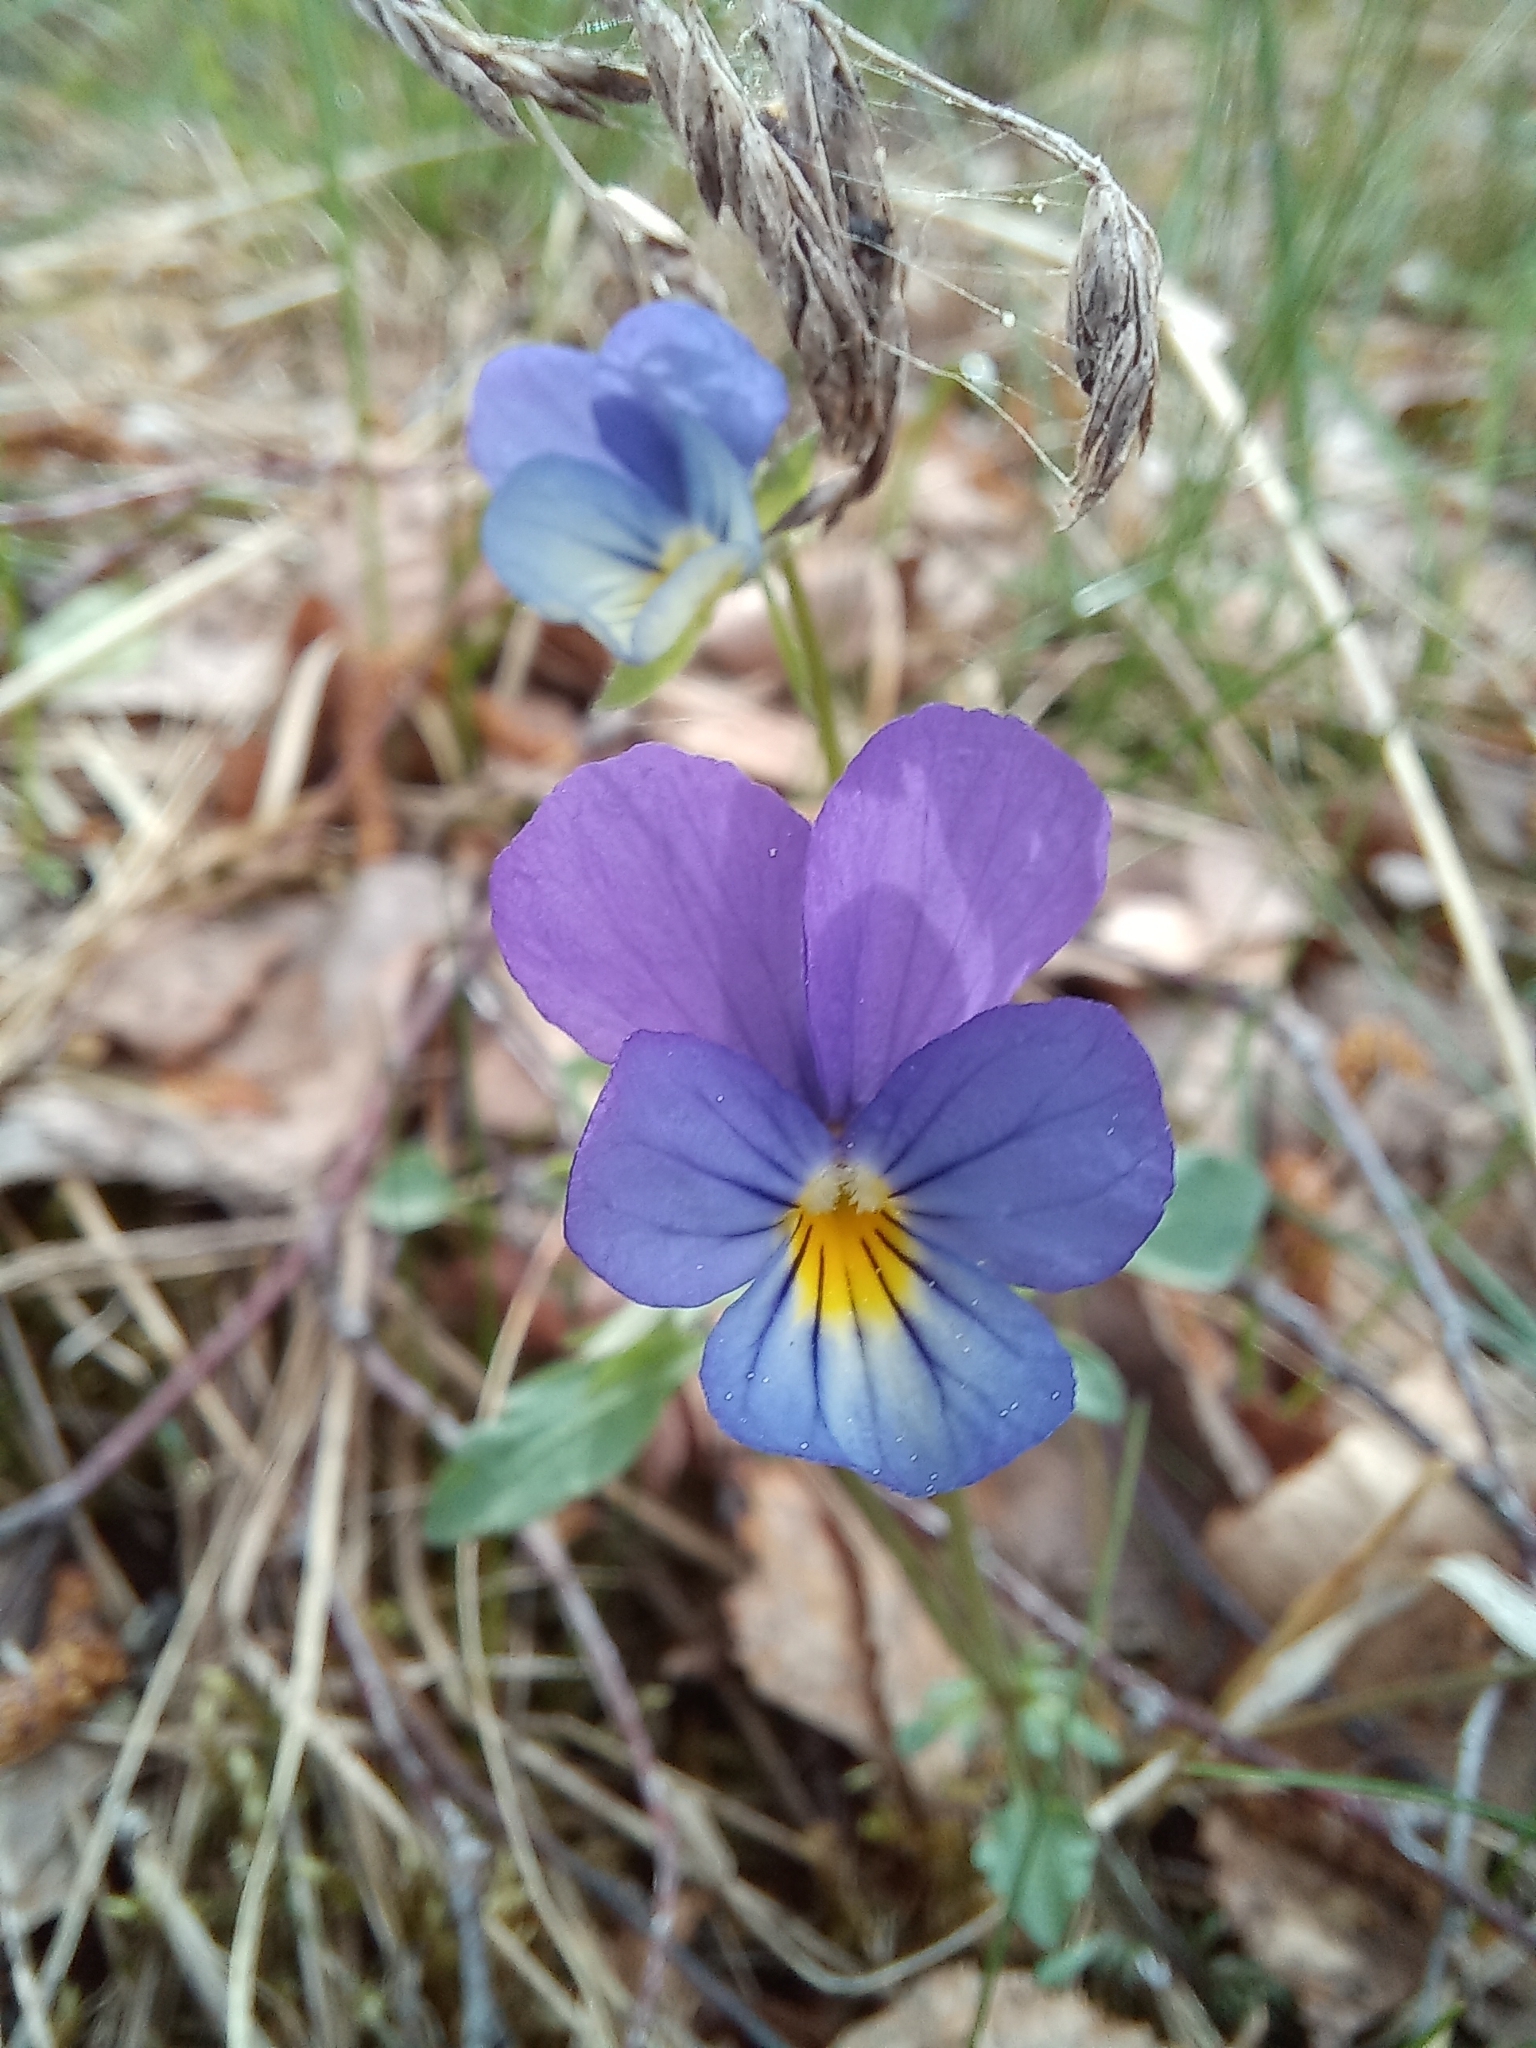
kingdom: Plantae
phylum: Tracheophyta
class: Magnoliopsida
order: Malpighiales
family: Violaceae
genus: Viola
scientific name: Viola tricolor
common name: Pansy
